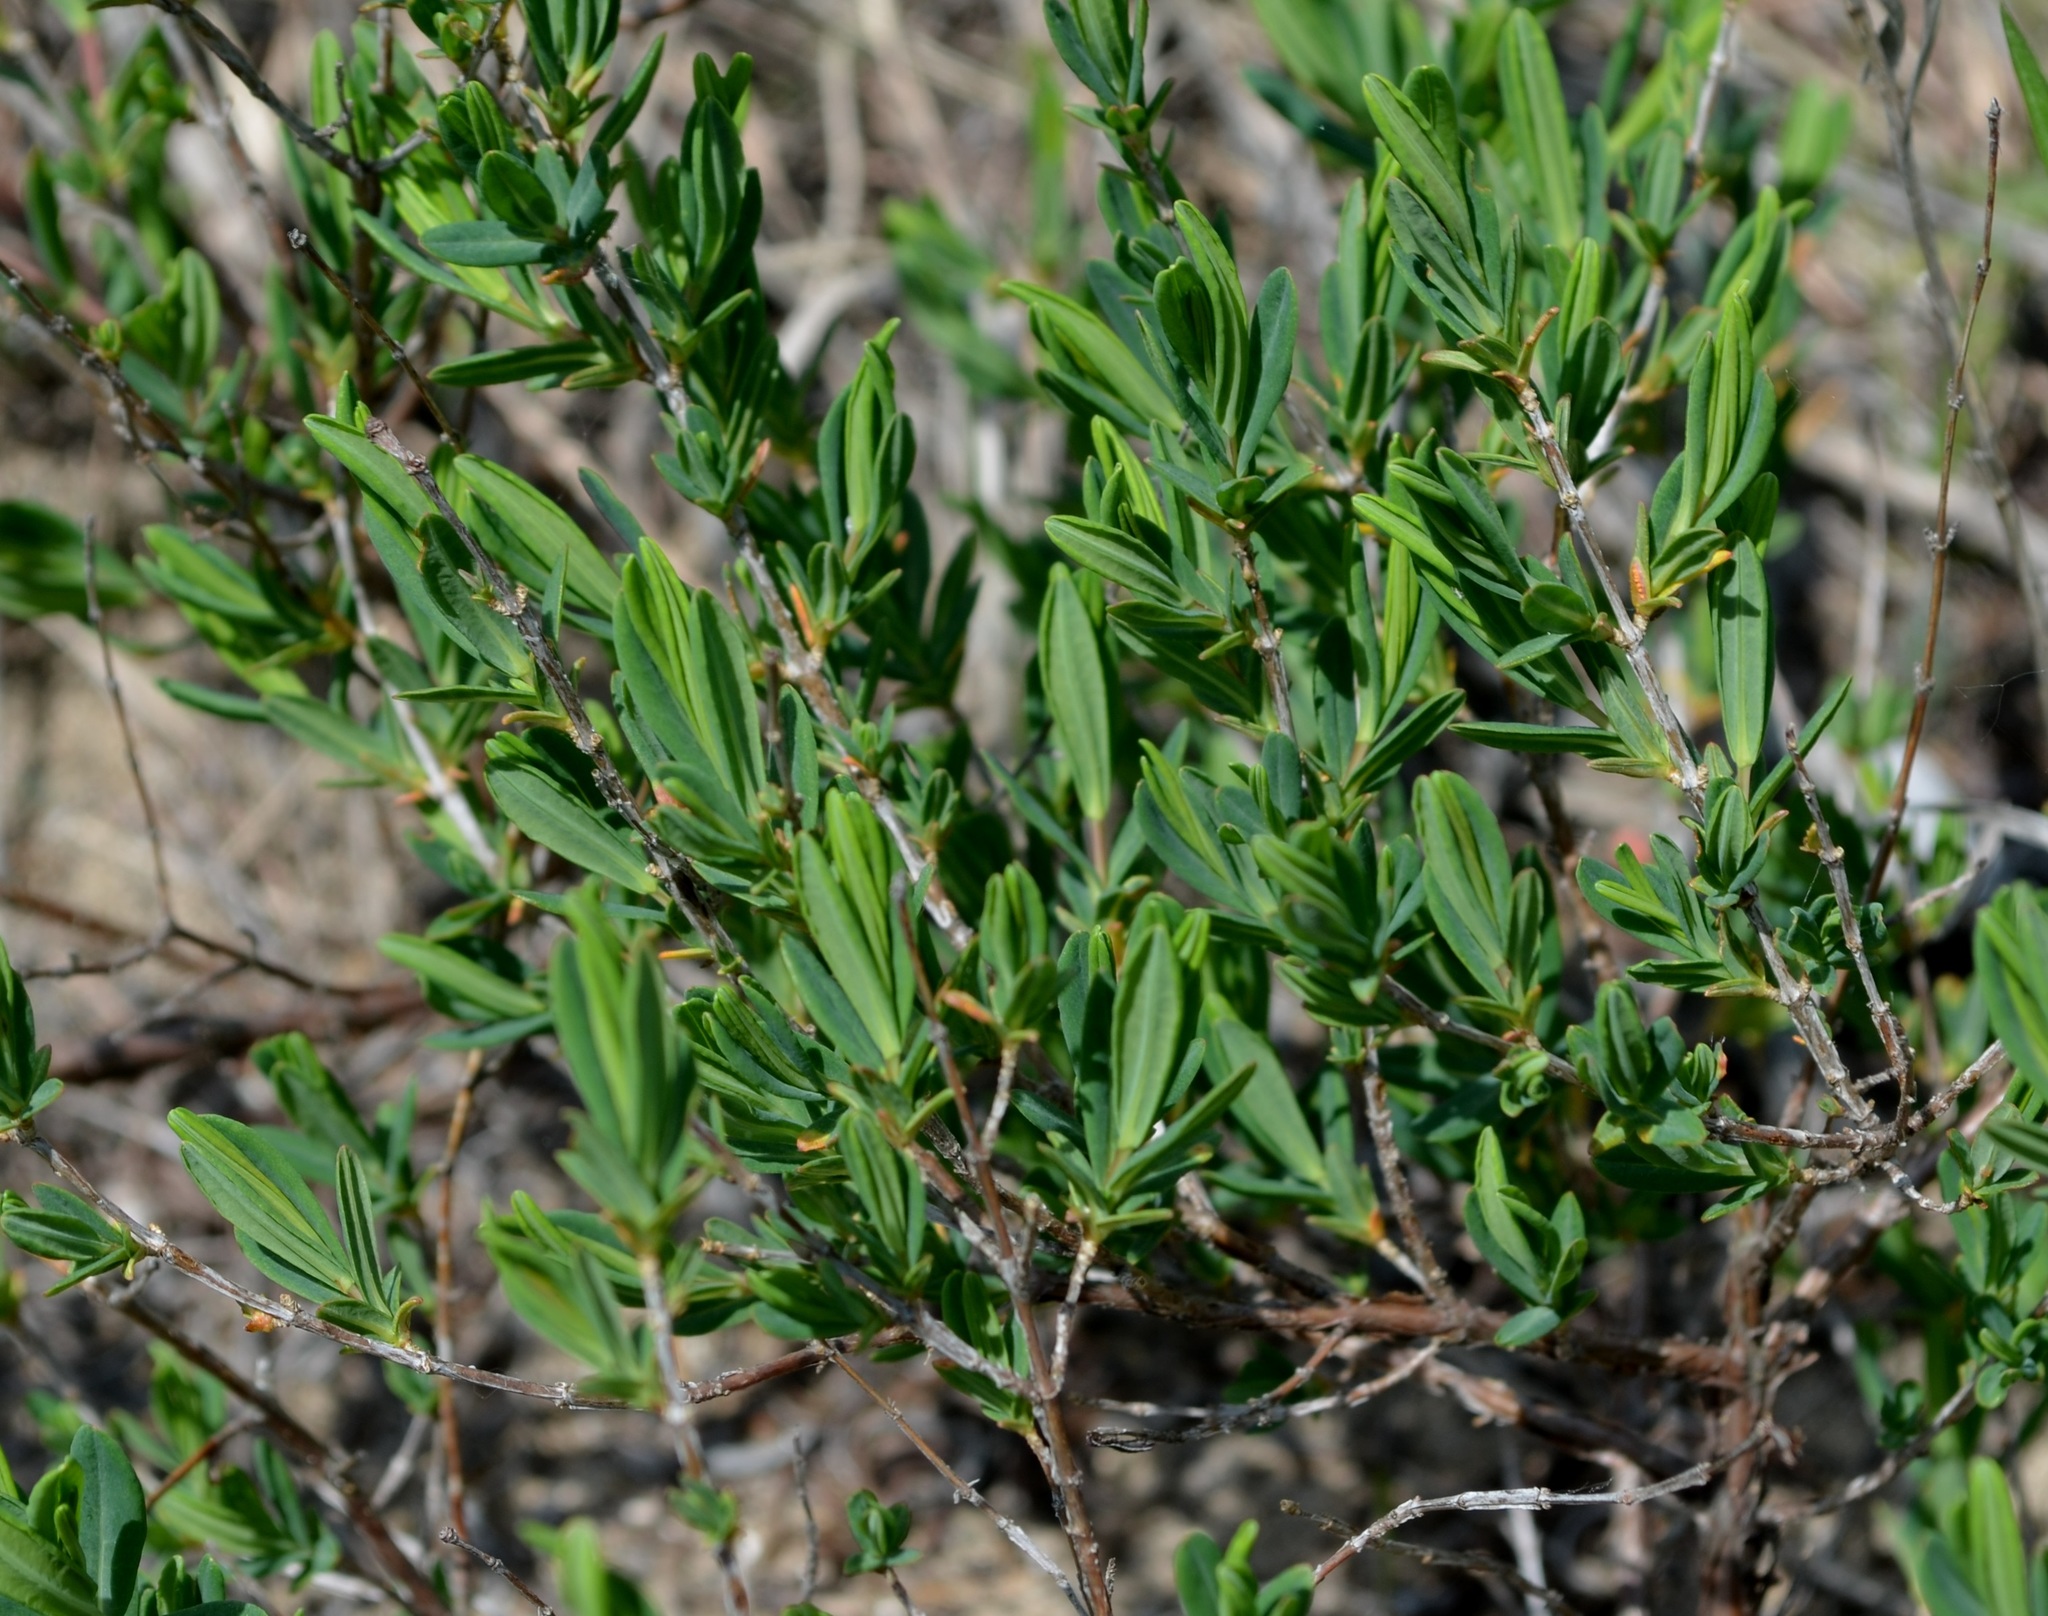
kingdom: Plantae
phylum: Tracheophyta
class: Magnoliopsida
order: Malpighiales
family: Hypericaceae
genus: Hypericum
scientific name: Hypericum kalmianum
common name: Kalm's st. john's-wort
